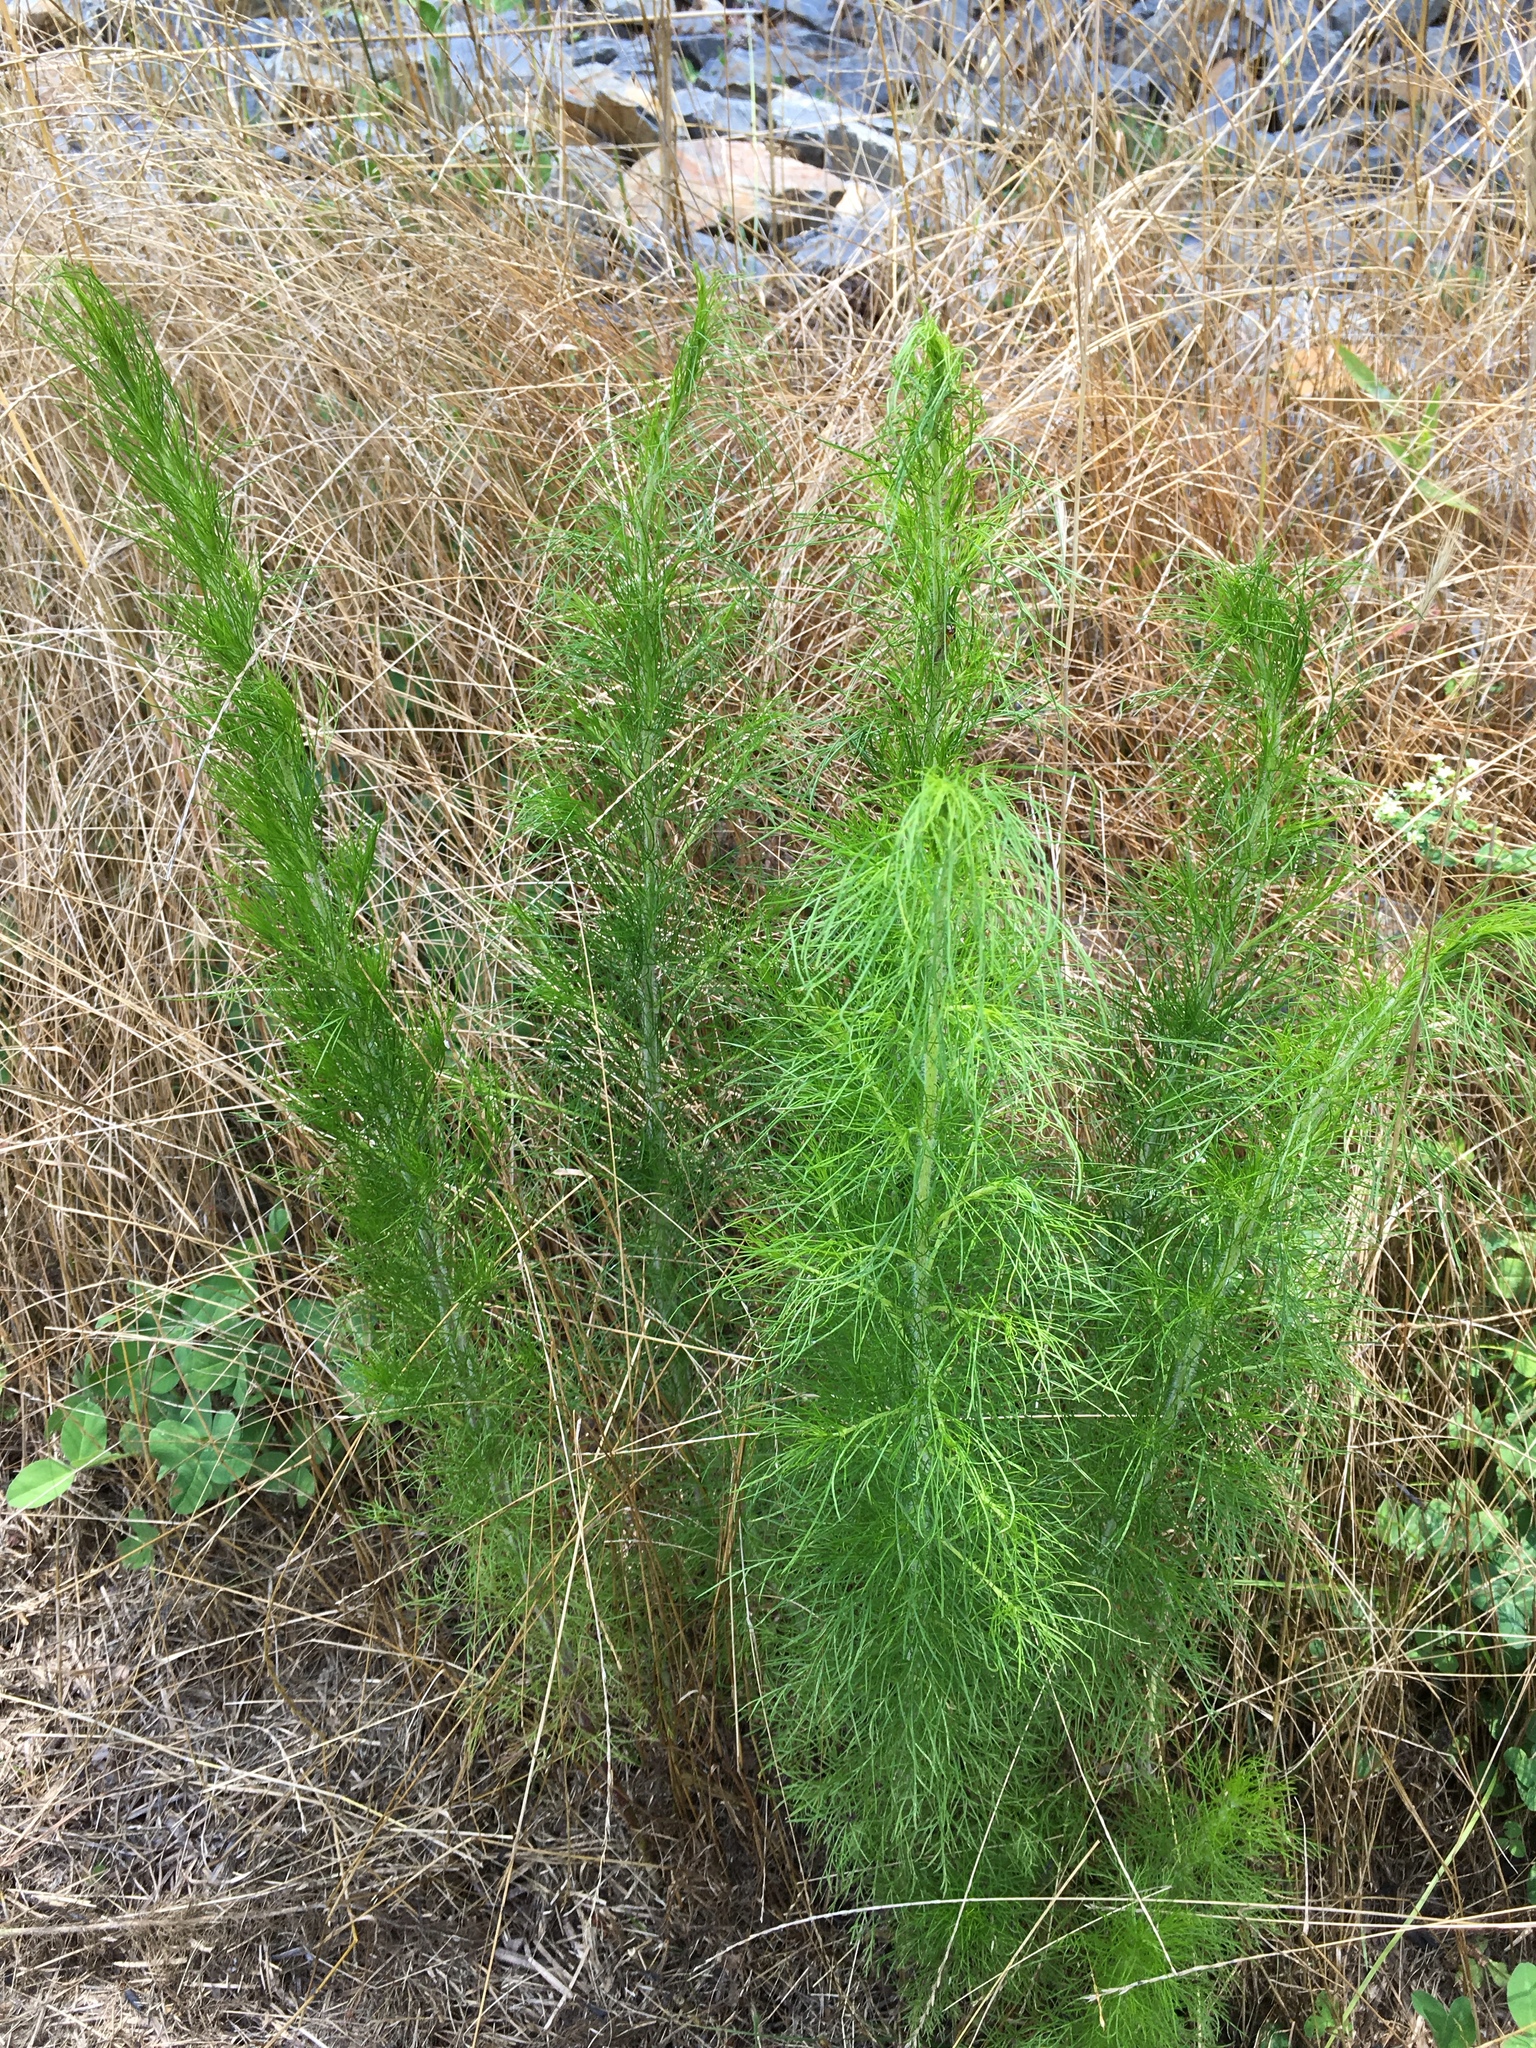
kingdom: Plantae
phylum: Tracheophyta
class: Magnoliopsida
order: Asterales
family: Asteraceae
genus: Eupatorium
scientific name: Eupatorium capillifolium
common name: Dog-fennel
